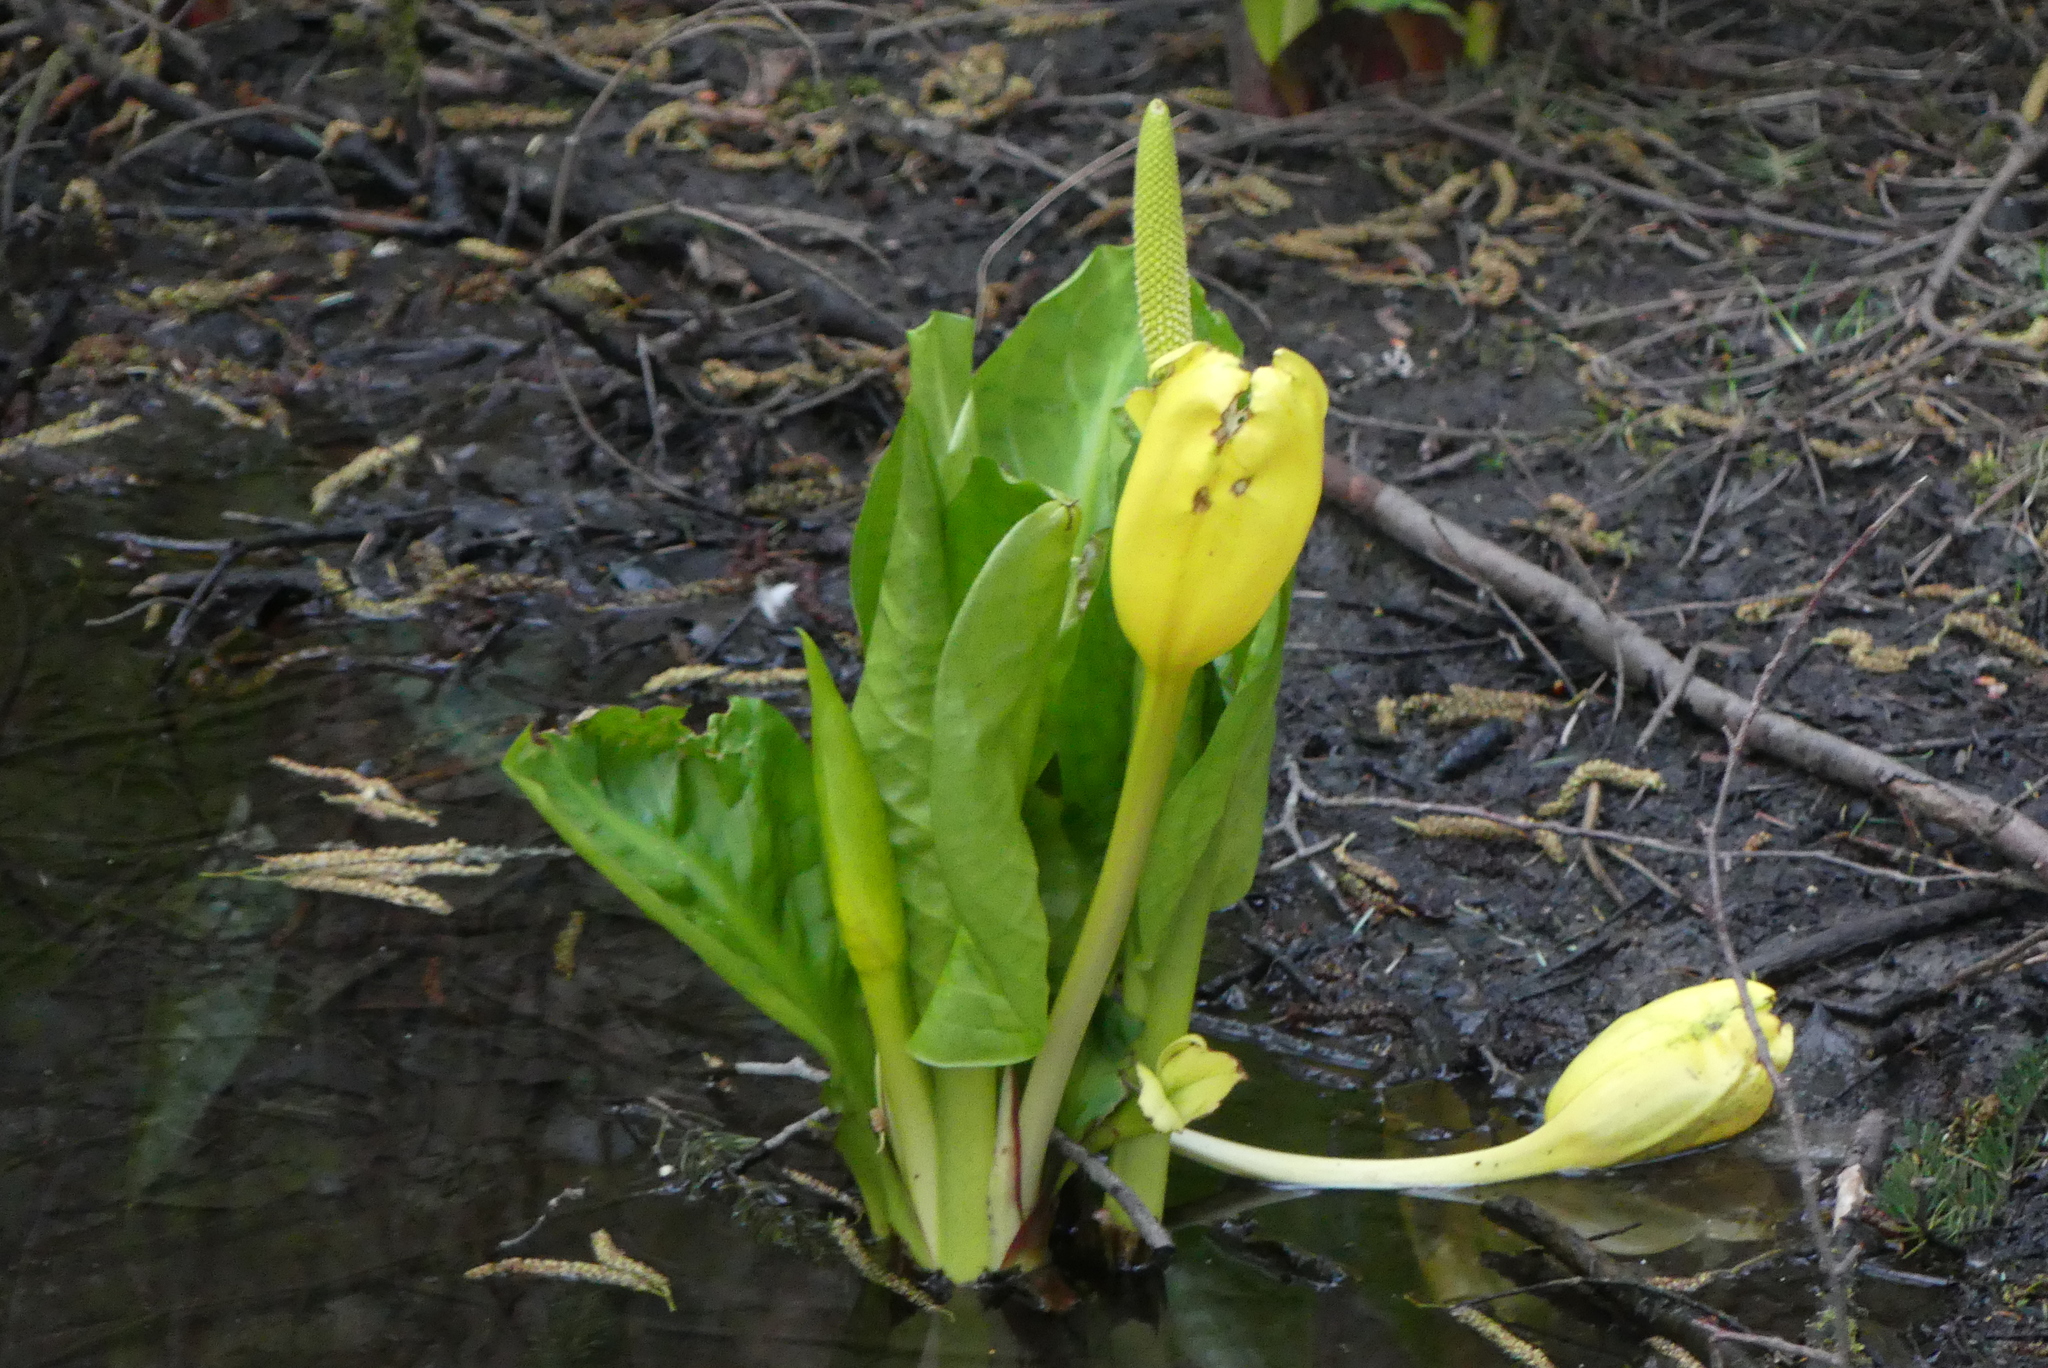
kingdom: Plantae
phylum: Tracheophyta
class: Liliopsida
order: Alismatales
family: Araceae
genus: Lysichiton
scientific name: Lysichiton americanus
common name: American skunk cabbage
